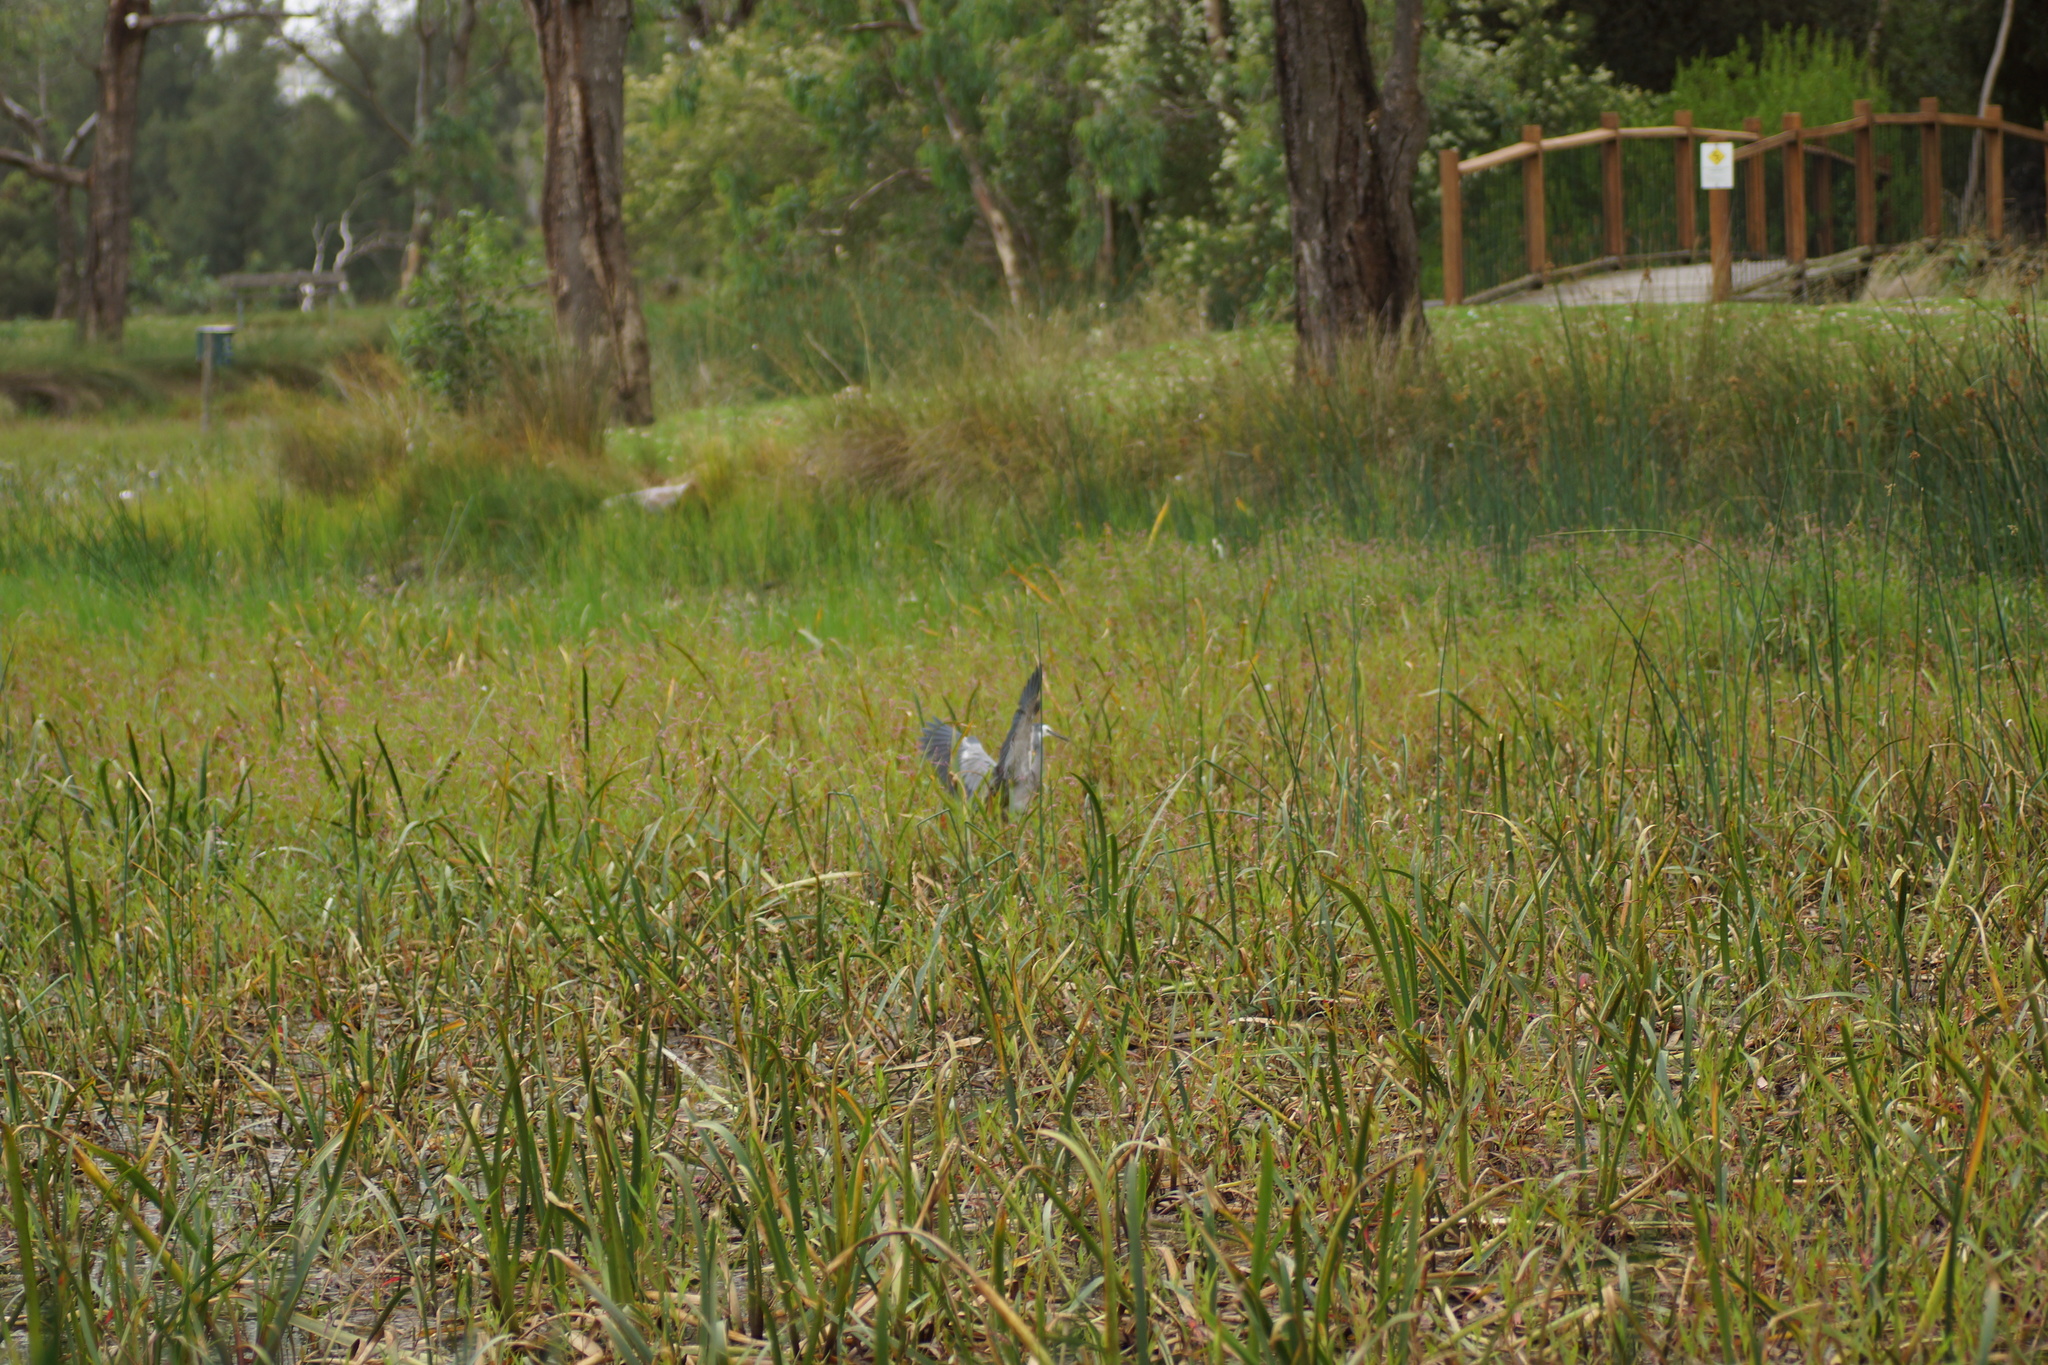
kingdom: Animalia
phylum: Chordata
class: Aves
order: Pelecaniformes
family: Ardeidae
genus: Egretta
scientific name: Egretta novaehollandiae
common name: White-faced heron
